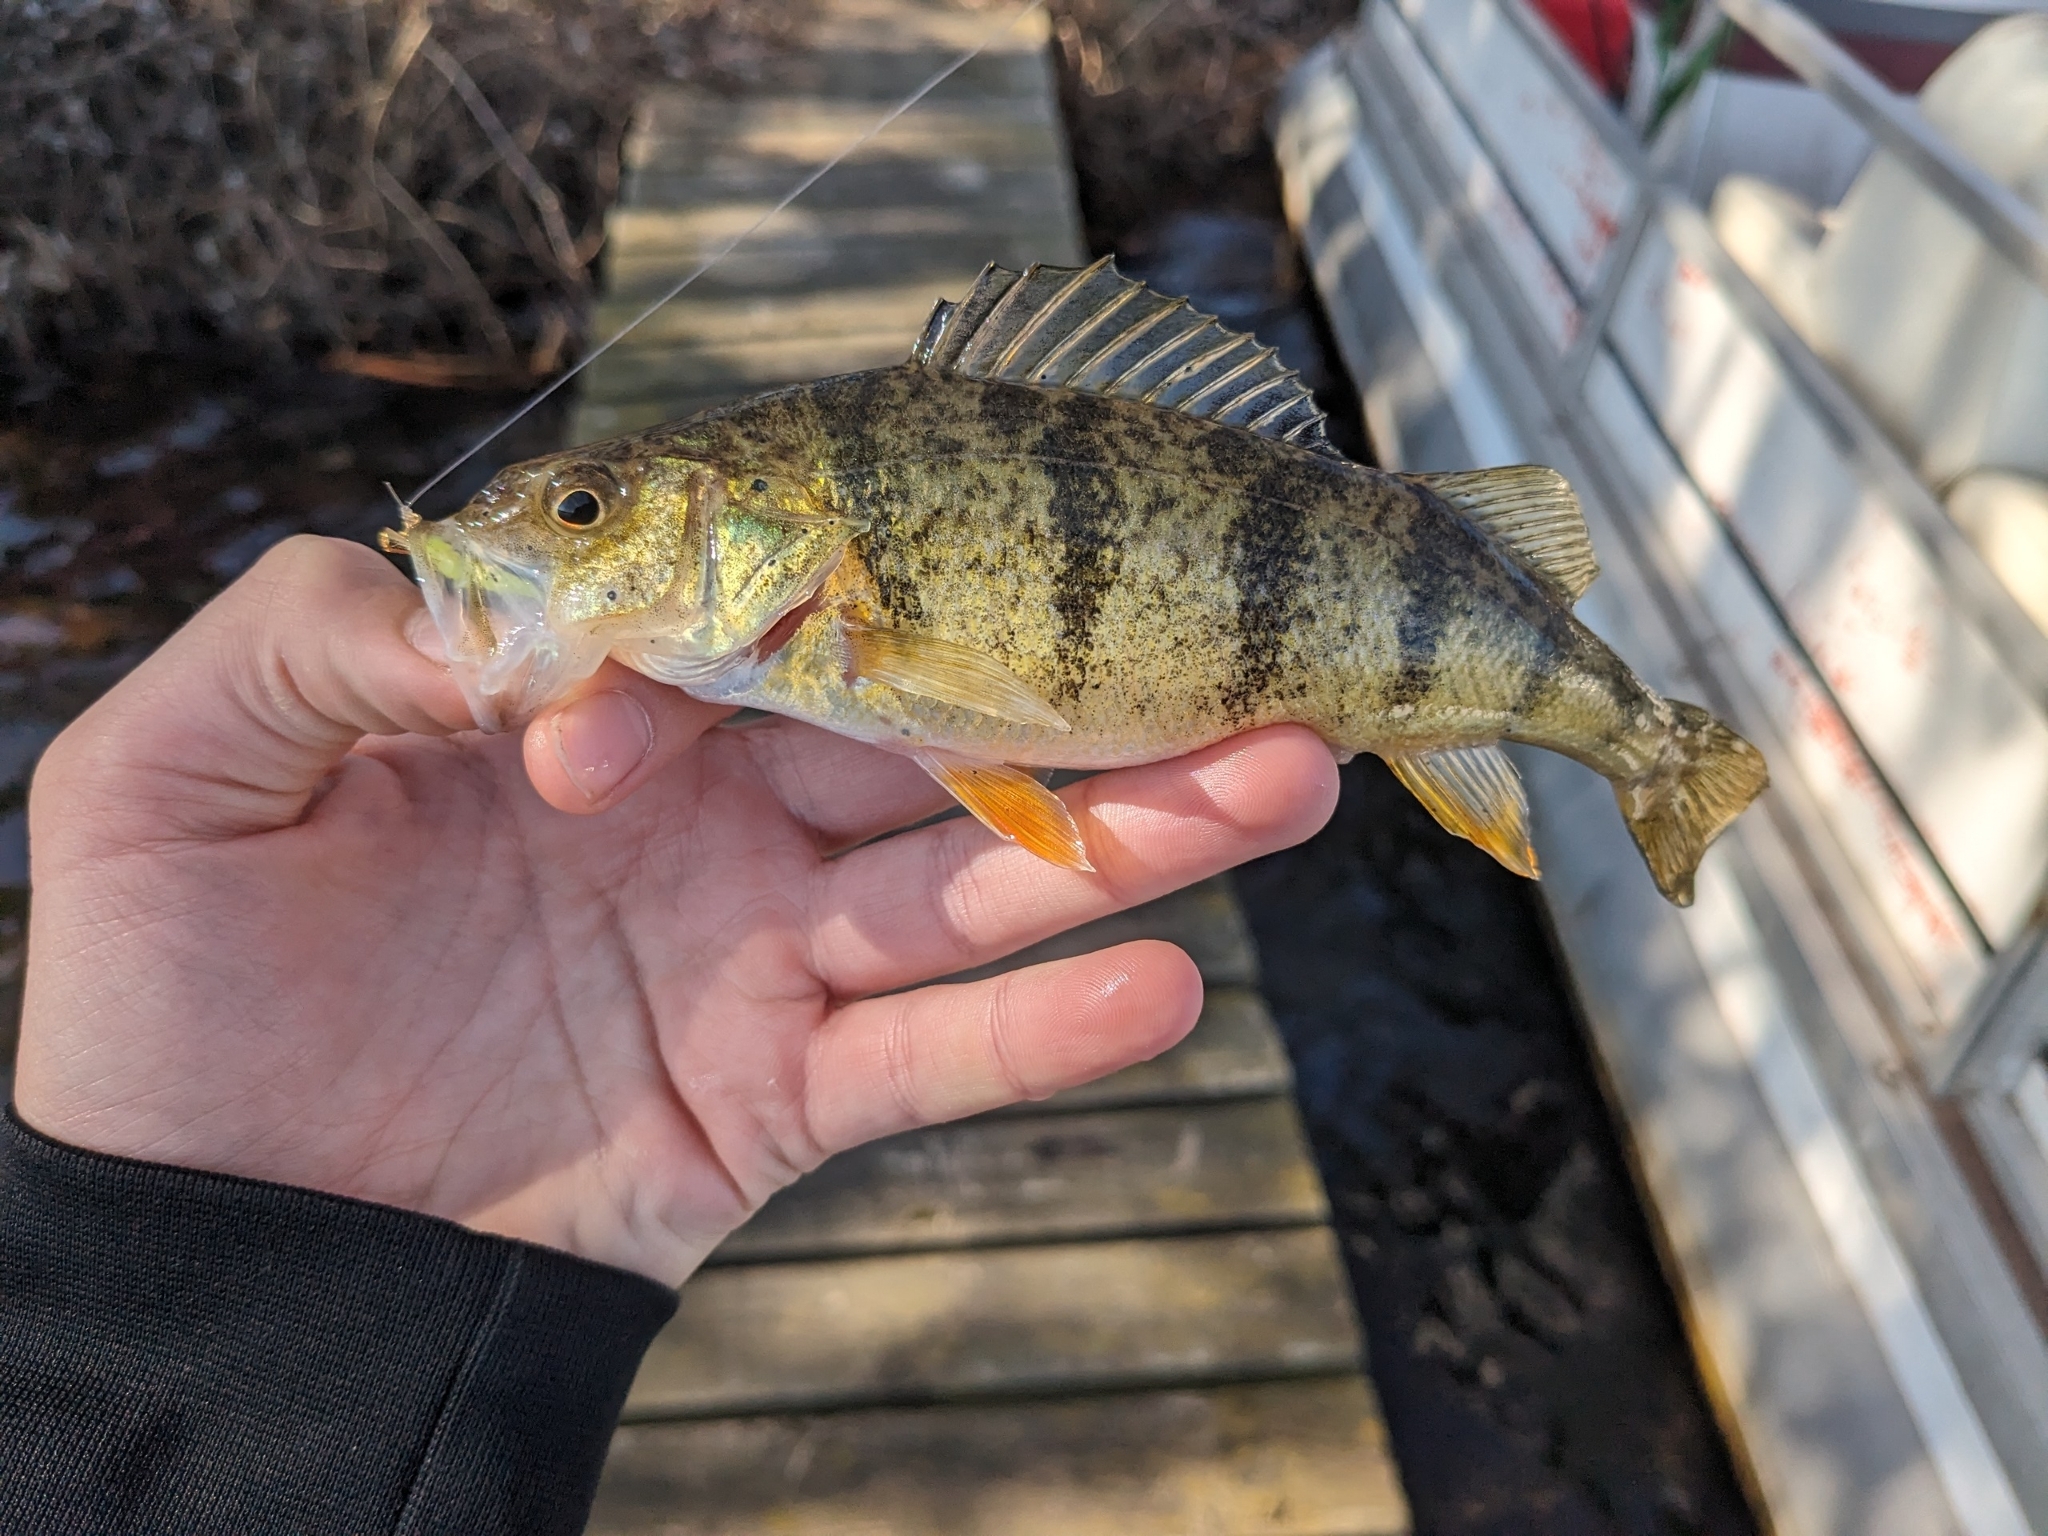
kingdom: Animalia
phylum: Chordata
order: Perciformes
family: Percidae
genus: Perca
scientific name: Perca flavescens
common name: Yellow perch
